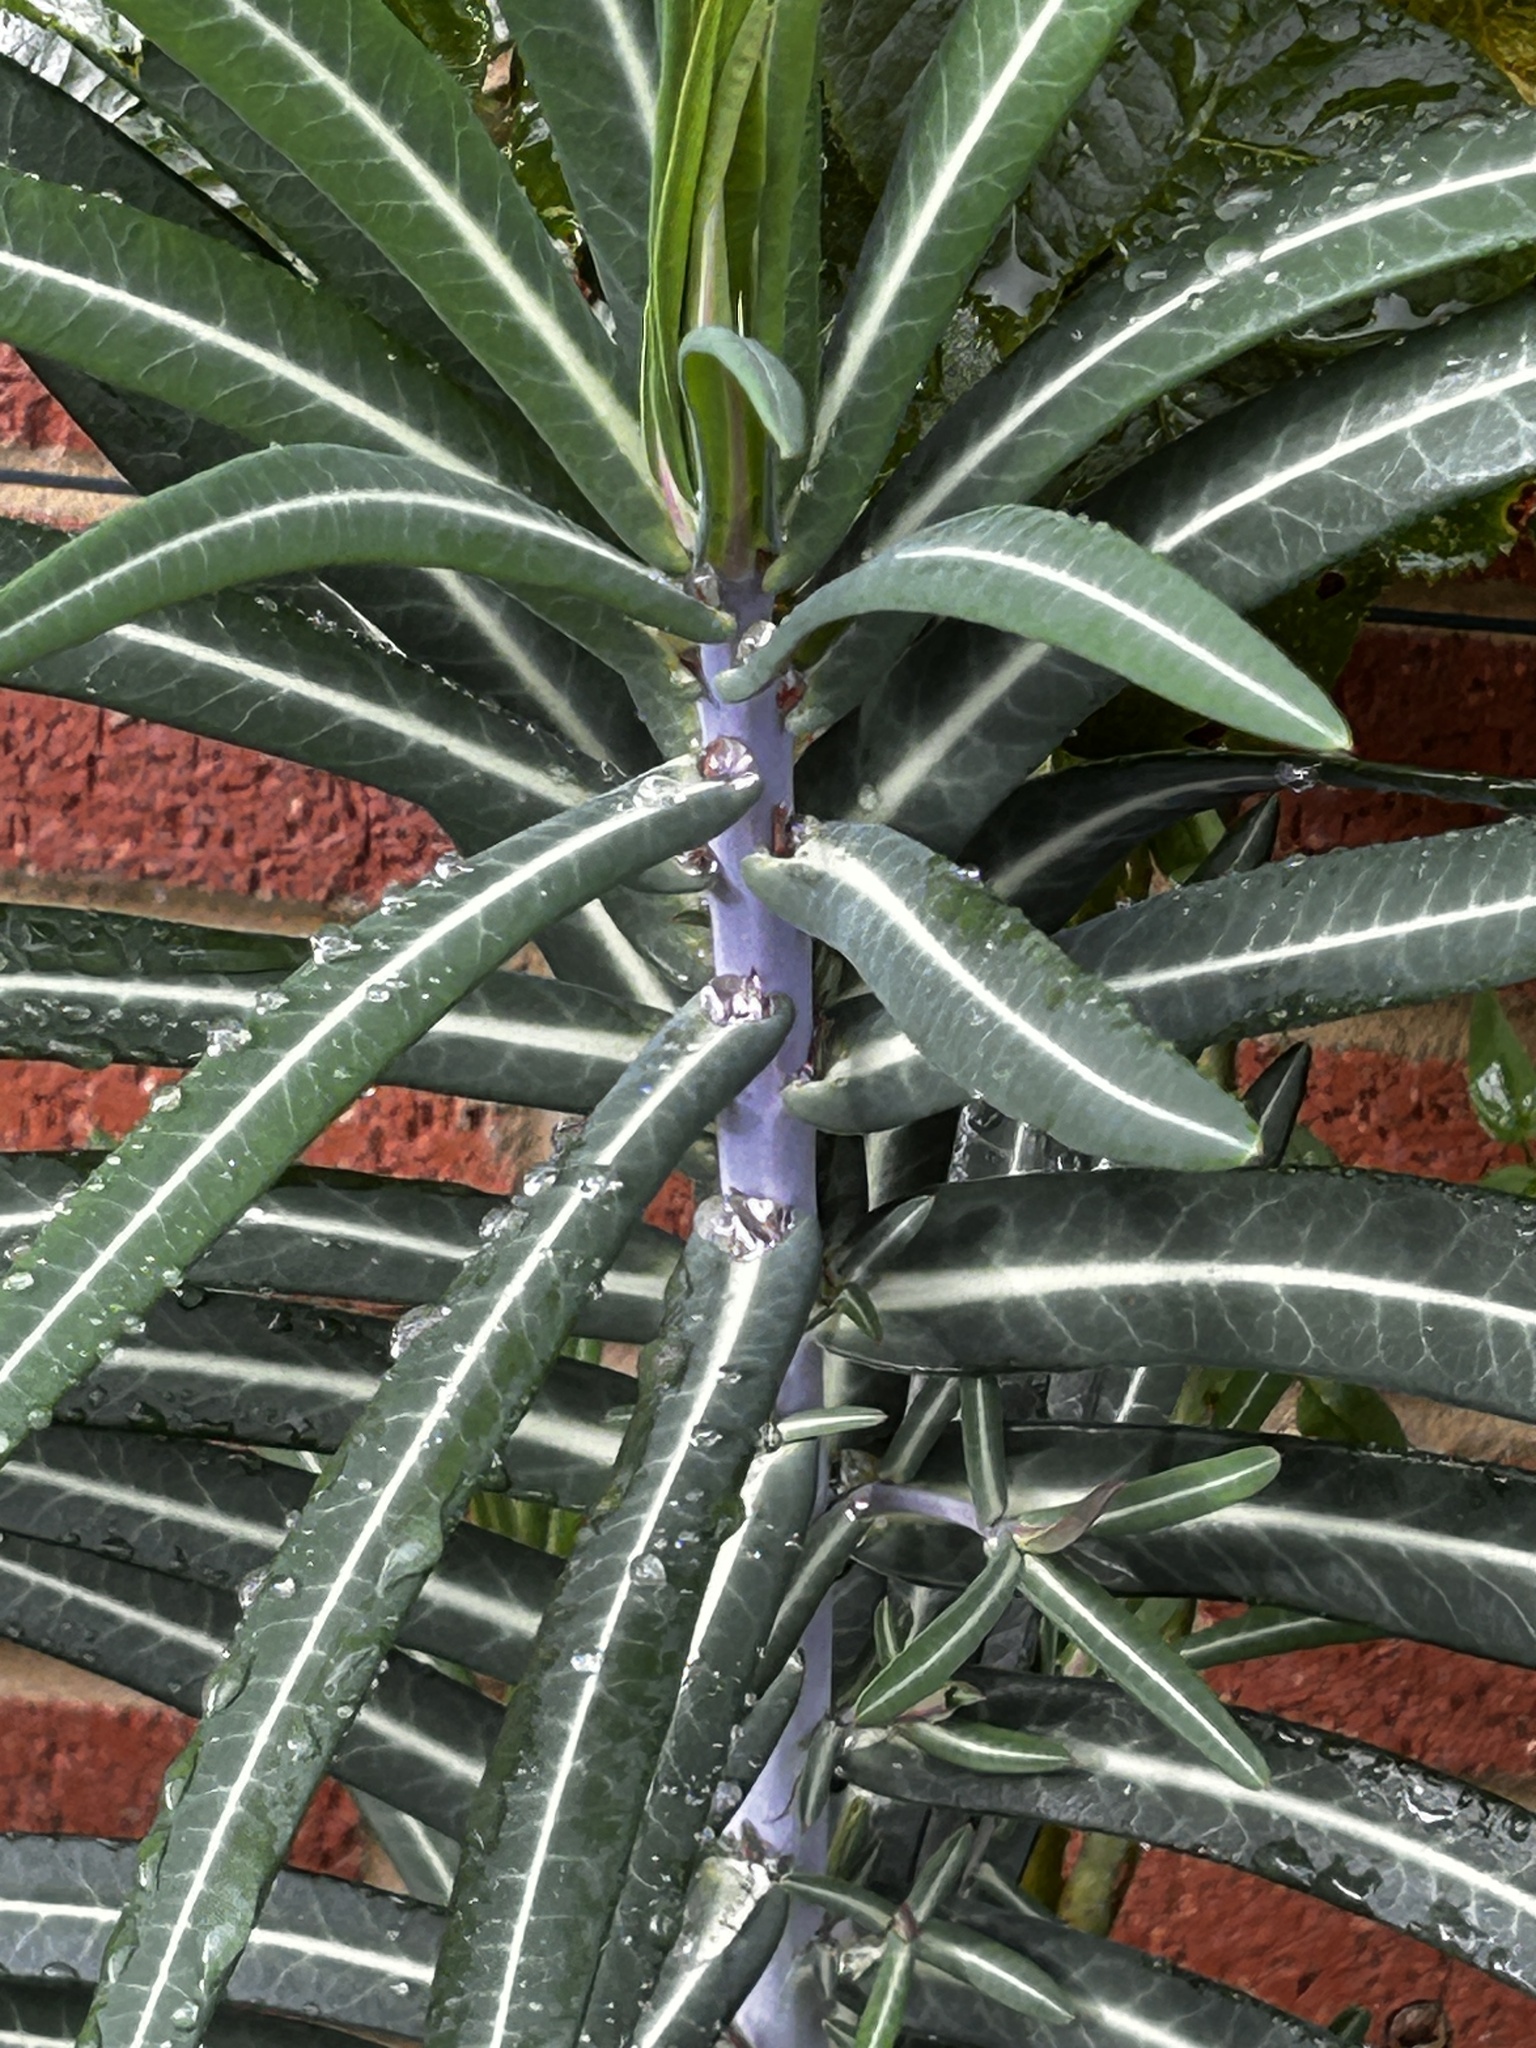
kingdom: Plantae
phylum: Tracheophyta
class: Magnoliopsida
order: Malpighiales
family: Euphorbiaceae
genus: Euphorbia
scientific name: Euphorbia lathyris
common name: Caper spurge
